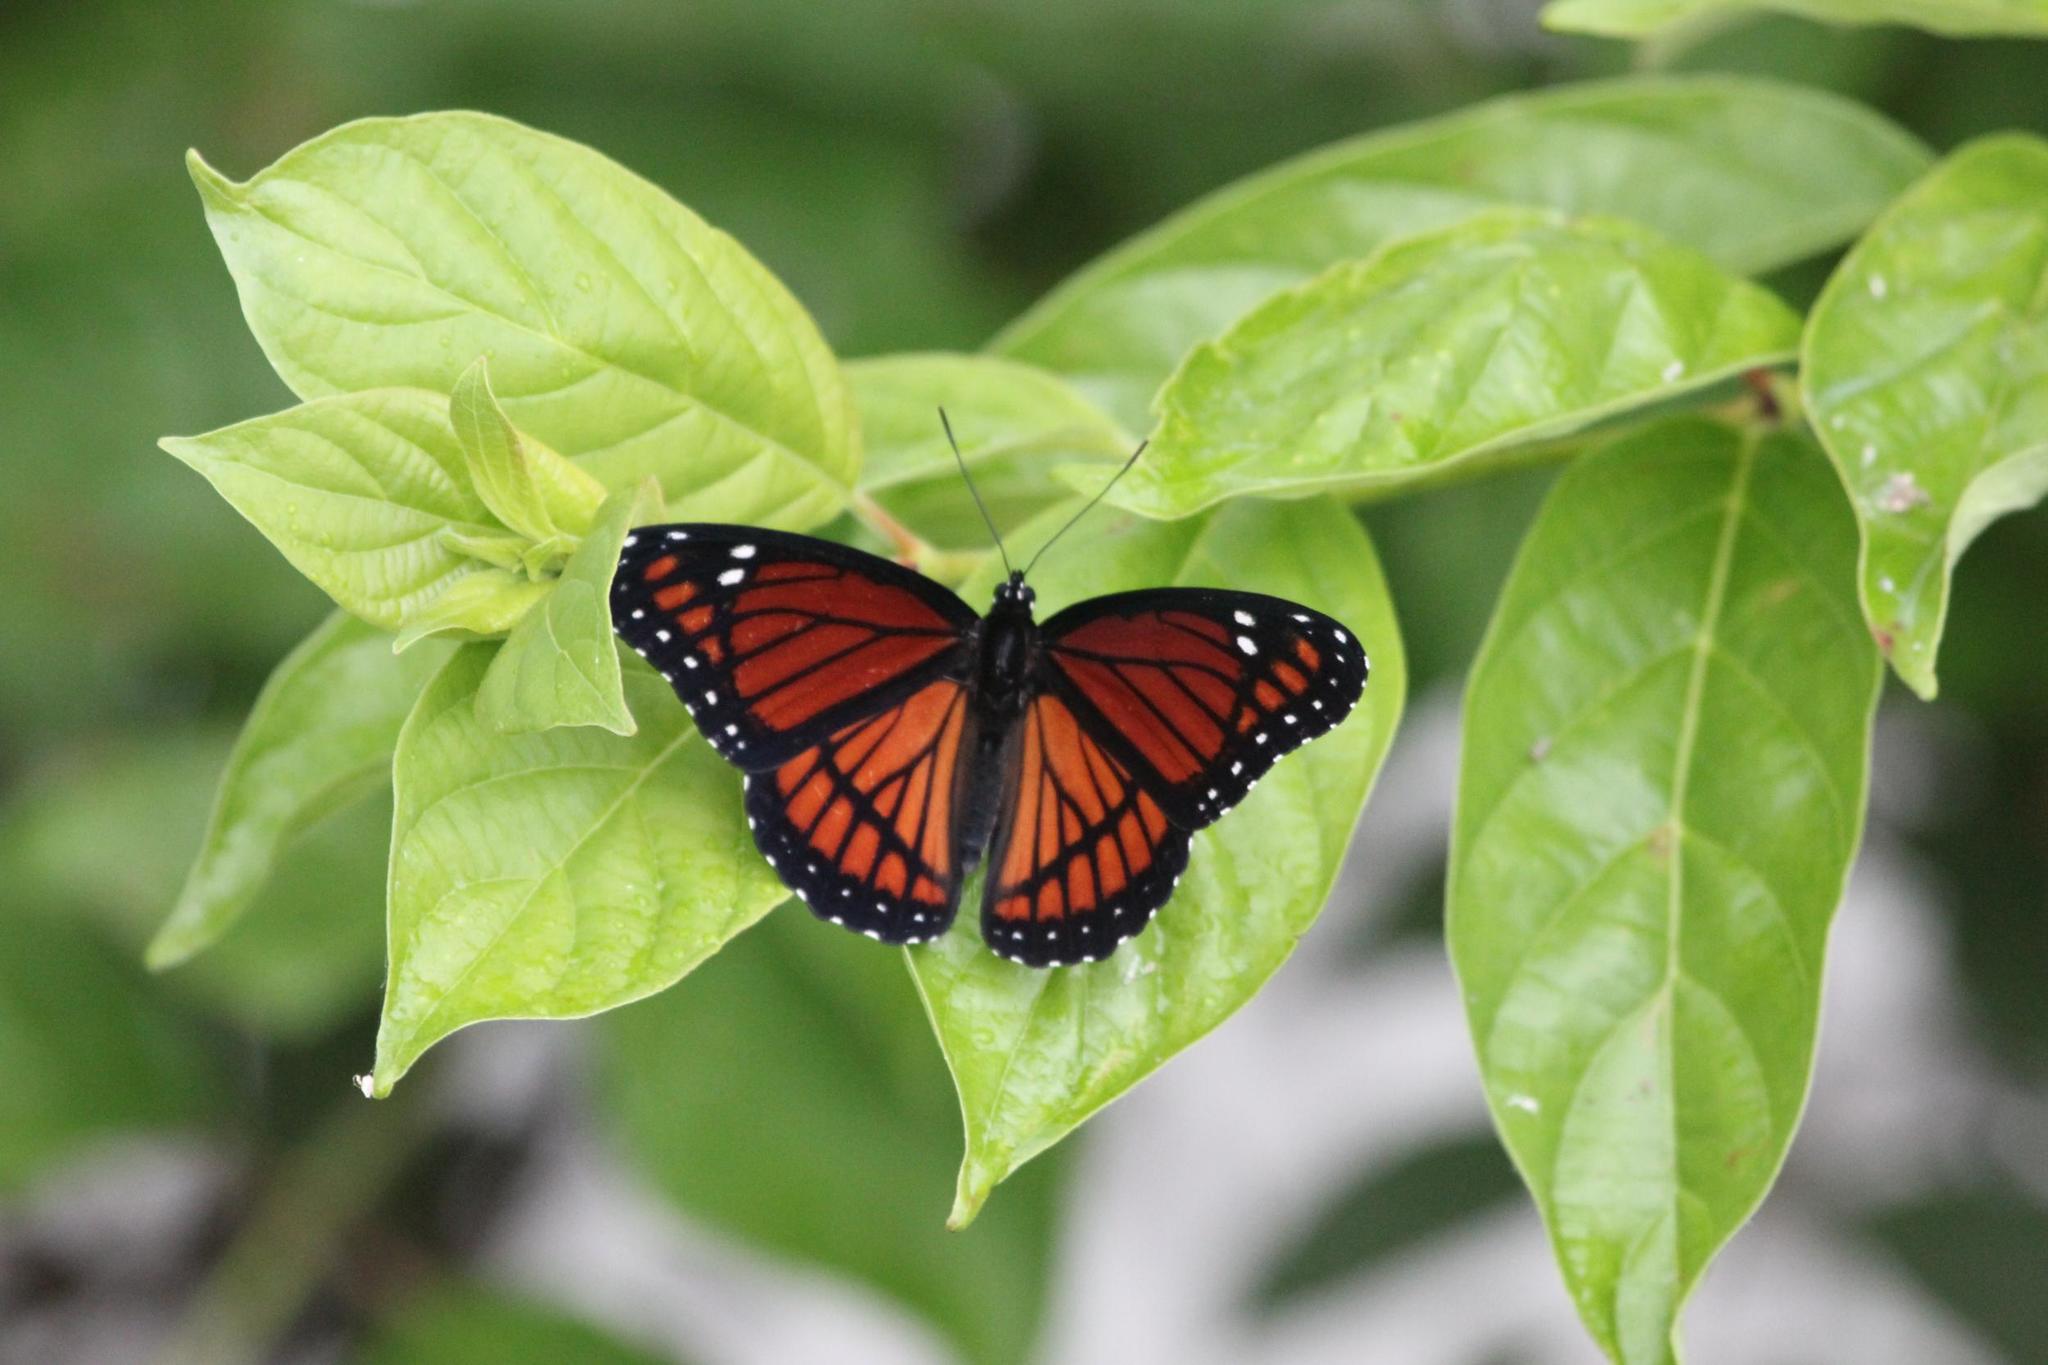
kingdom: Animalia
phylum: Arthropoda
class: Insecta
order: Lepidoptera
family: Nymphalidae
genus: Limenitis
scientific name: Limenitis archippus
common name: Viceroy
